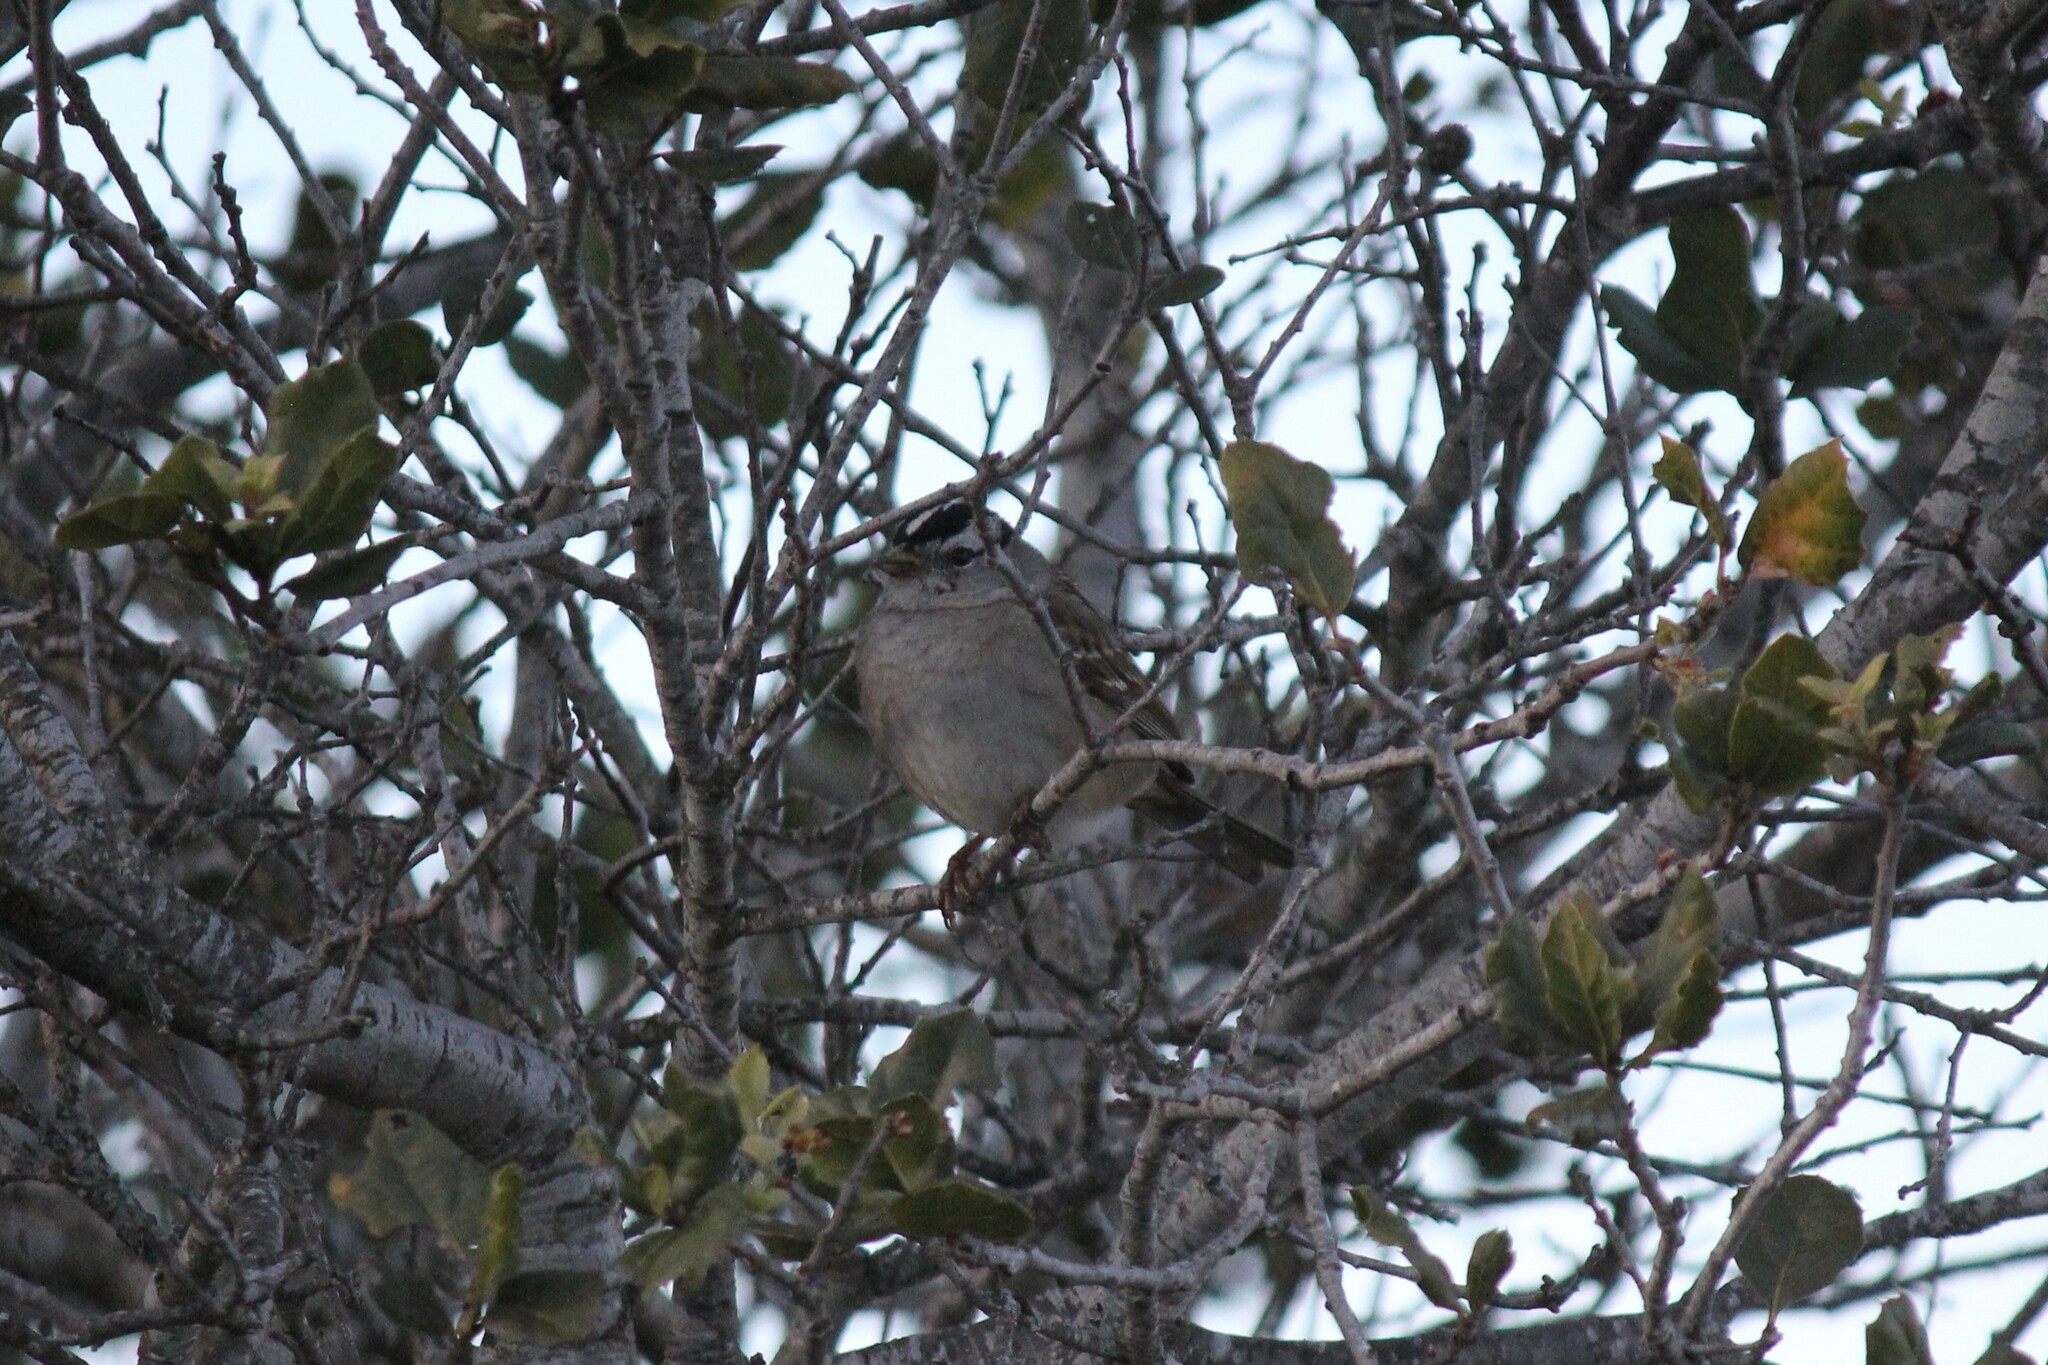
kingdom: Animalia
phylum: Chordata
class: Aves
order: Passeriformes
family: Passerellidae
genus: Zonotrichia
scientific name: Zonotrichia leucophrys
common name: White-crowned sparrow
